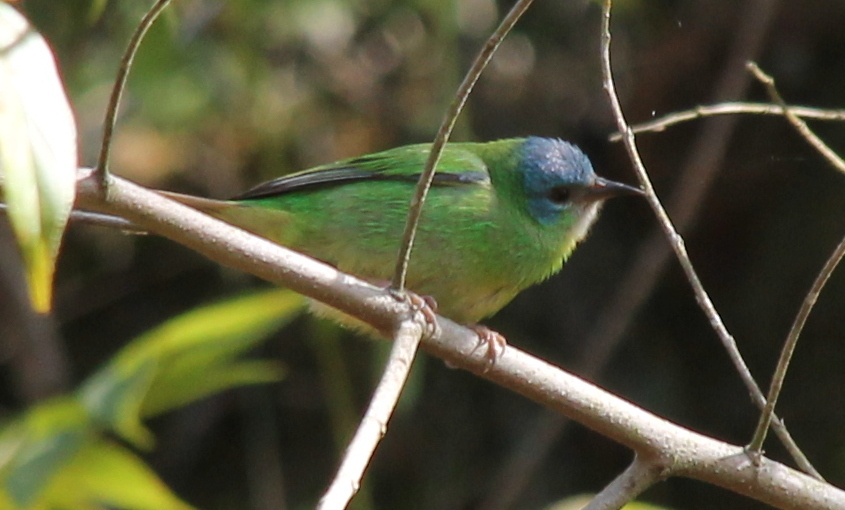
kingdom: Animalia
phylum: Chordata
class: Aves
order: Passeriformes
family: Thraupidae
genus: Dacnis
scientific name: Dacnis cayana
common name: Blue dacnis
